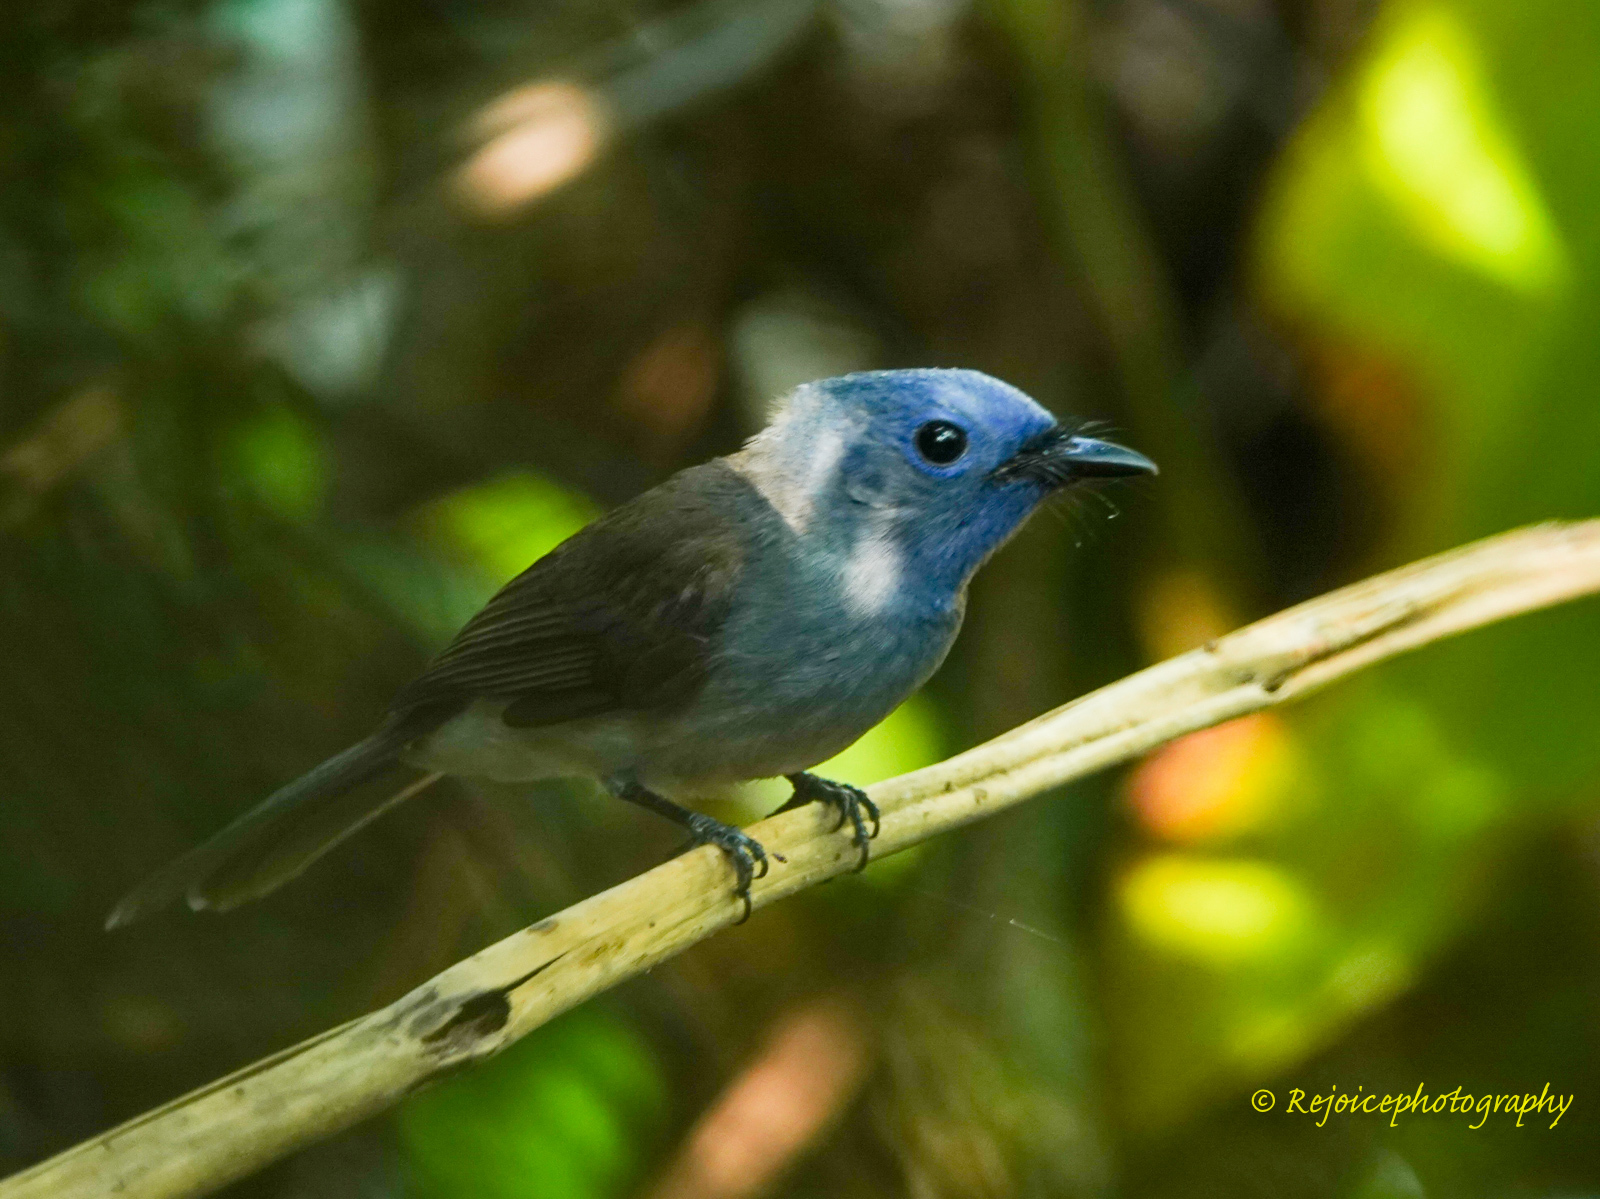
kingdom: Animalia
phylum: Chordata
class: Aves
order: Passeriformes
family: Monarchidae
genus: Hypothymis
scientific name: Hypothymis azurea
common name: Black-naped monarch
